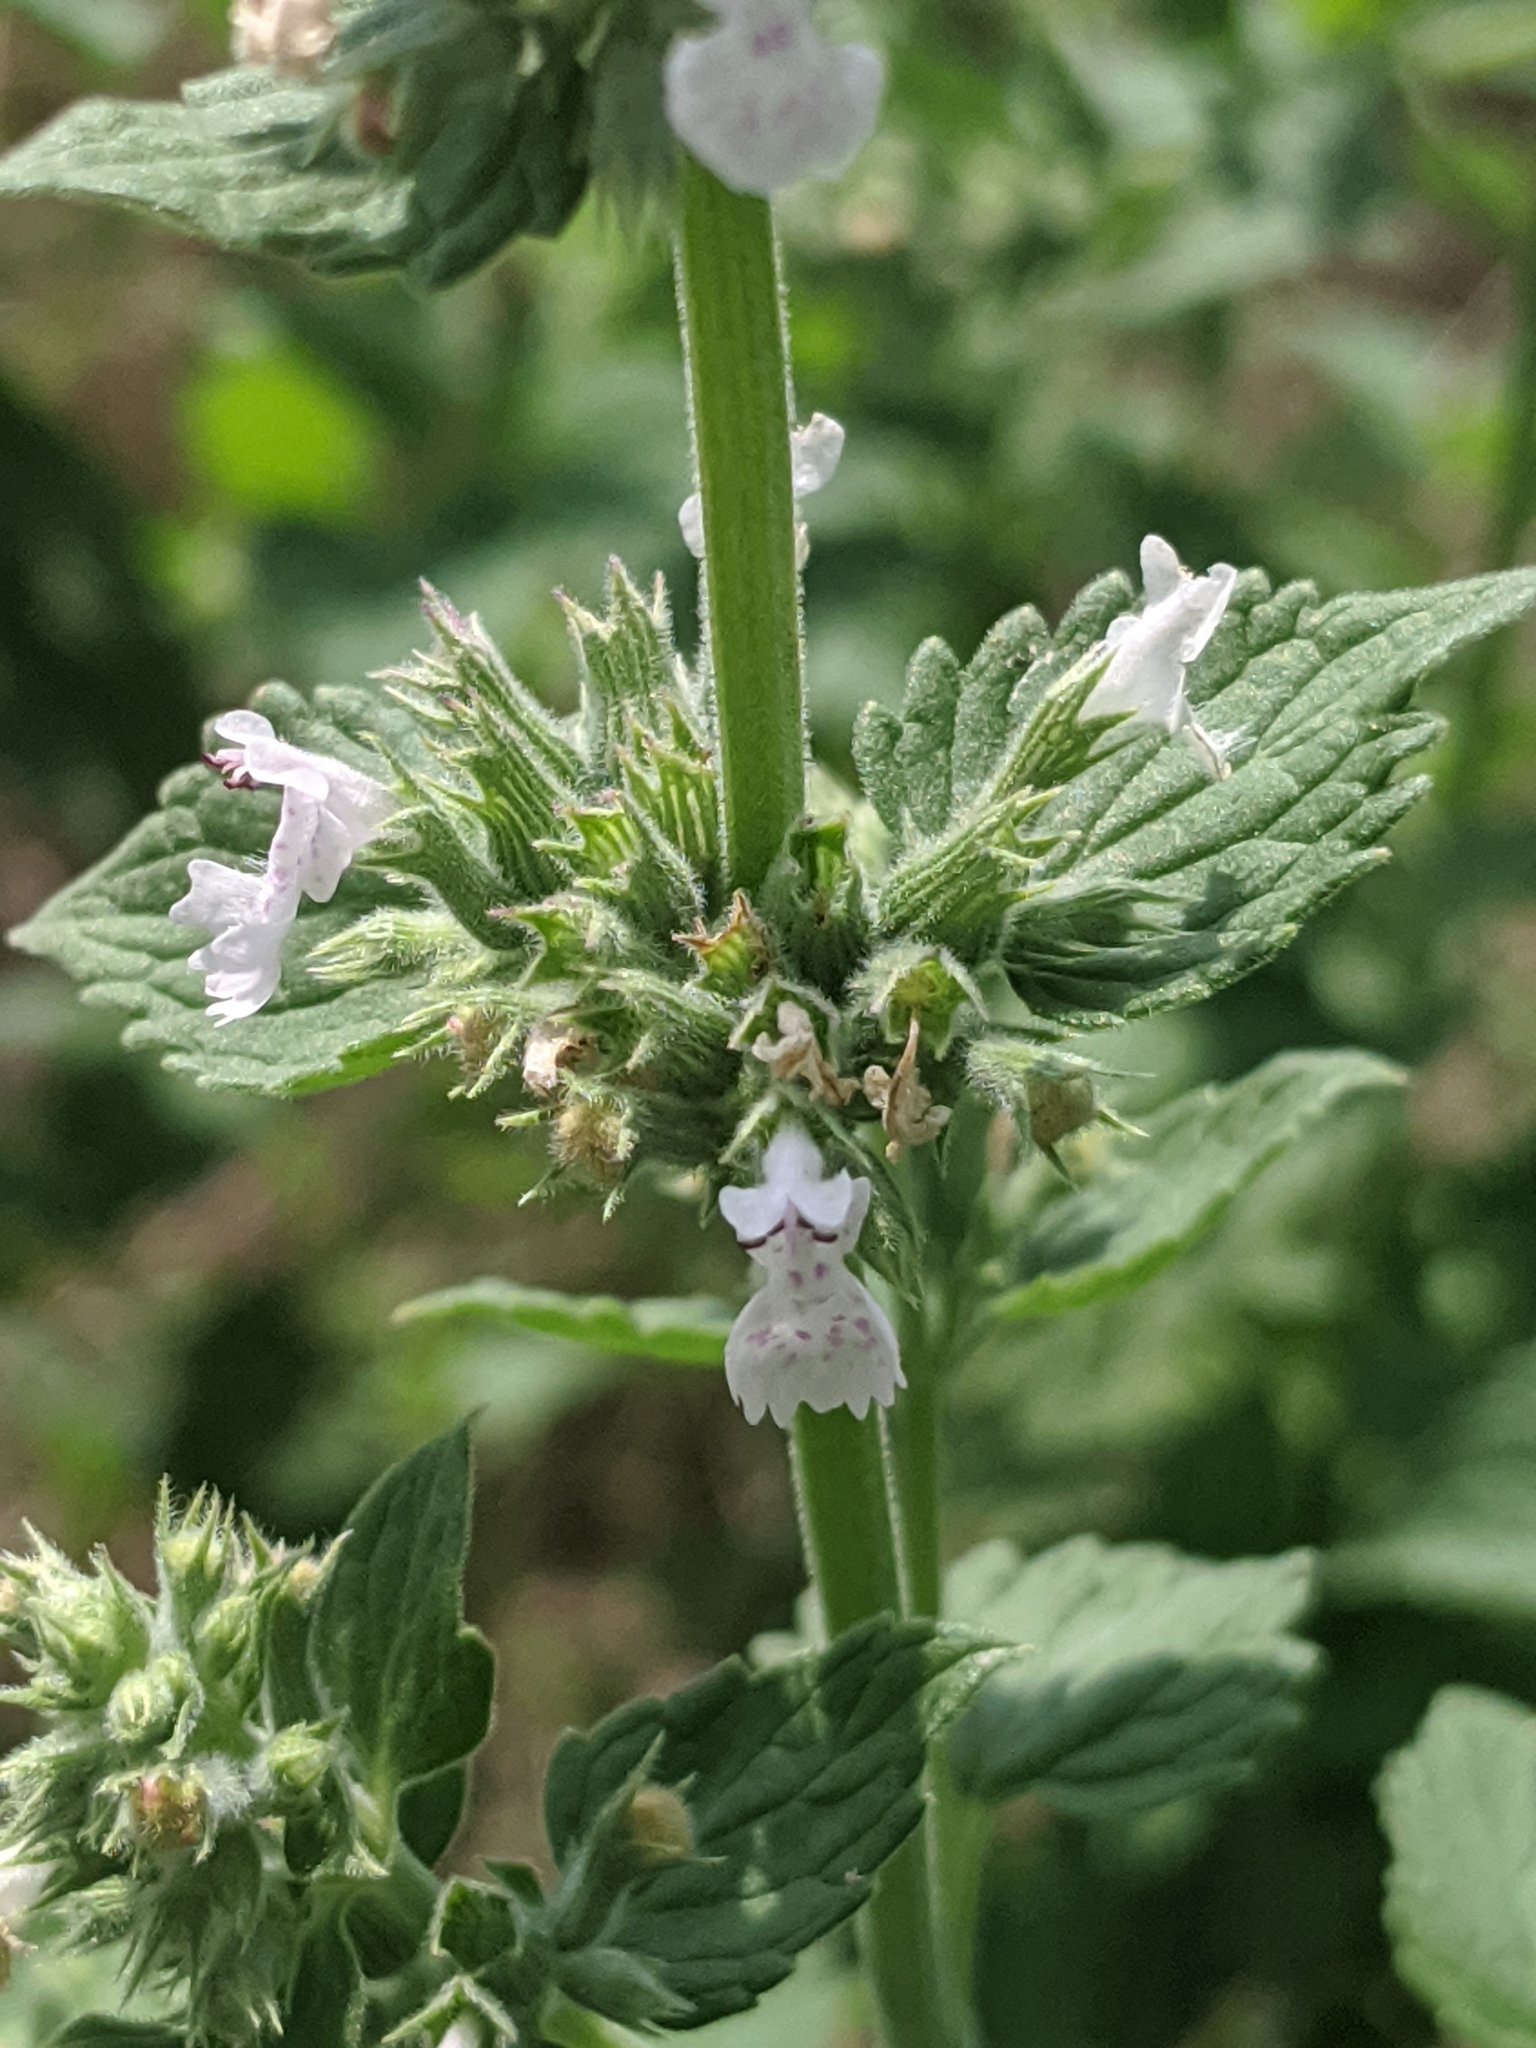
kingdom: Plantae
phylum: Tracheophyta
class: Magnoliopsida
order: Lamiales
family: Lamiaceae
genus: Nepeta
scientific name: Nepeta cataria
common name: Catnip
